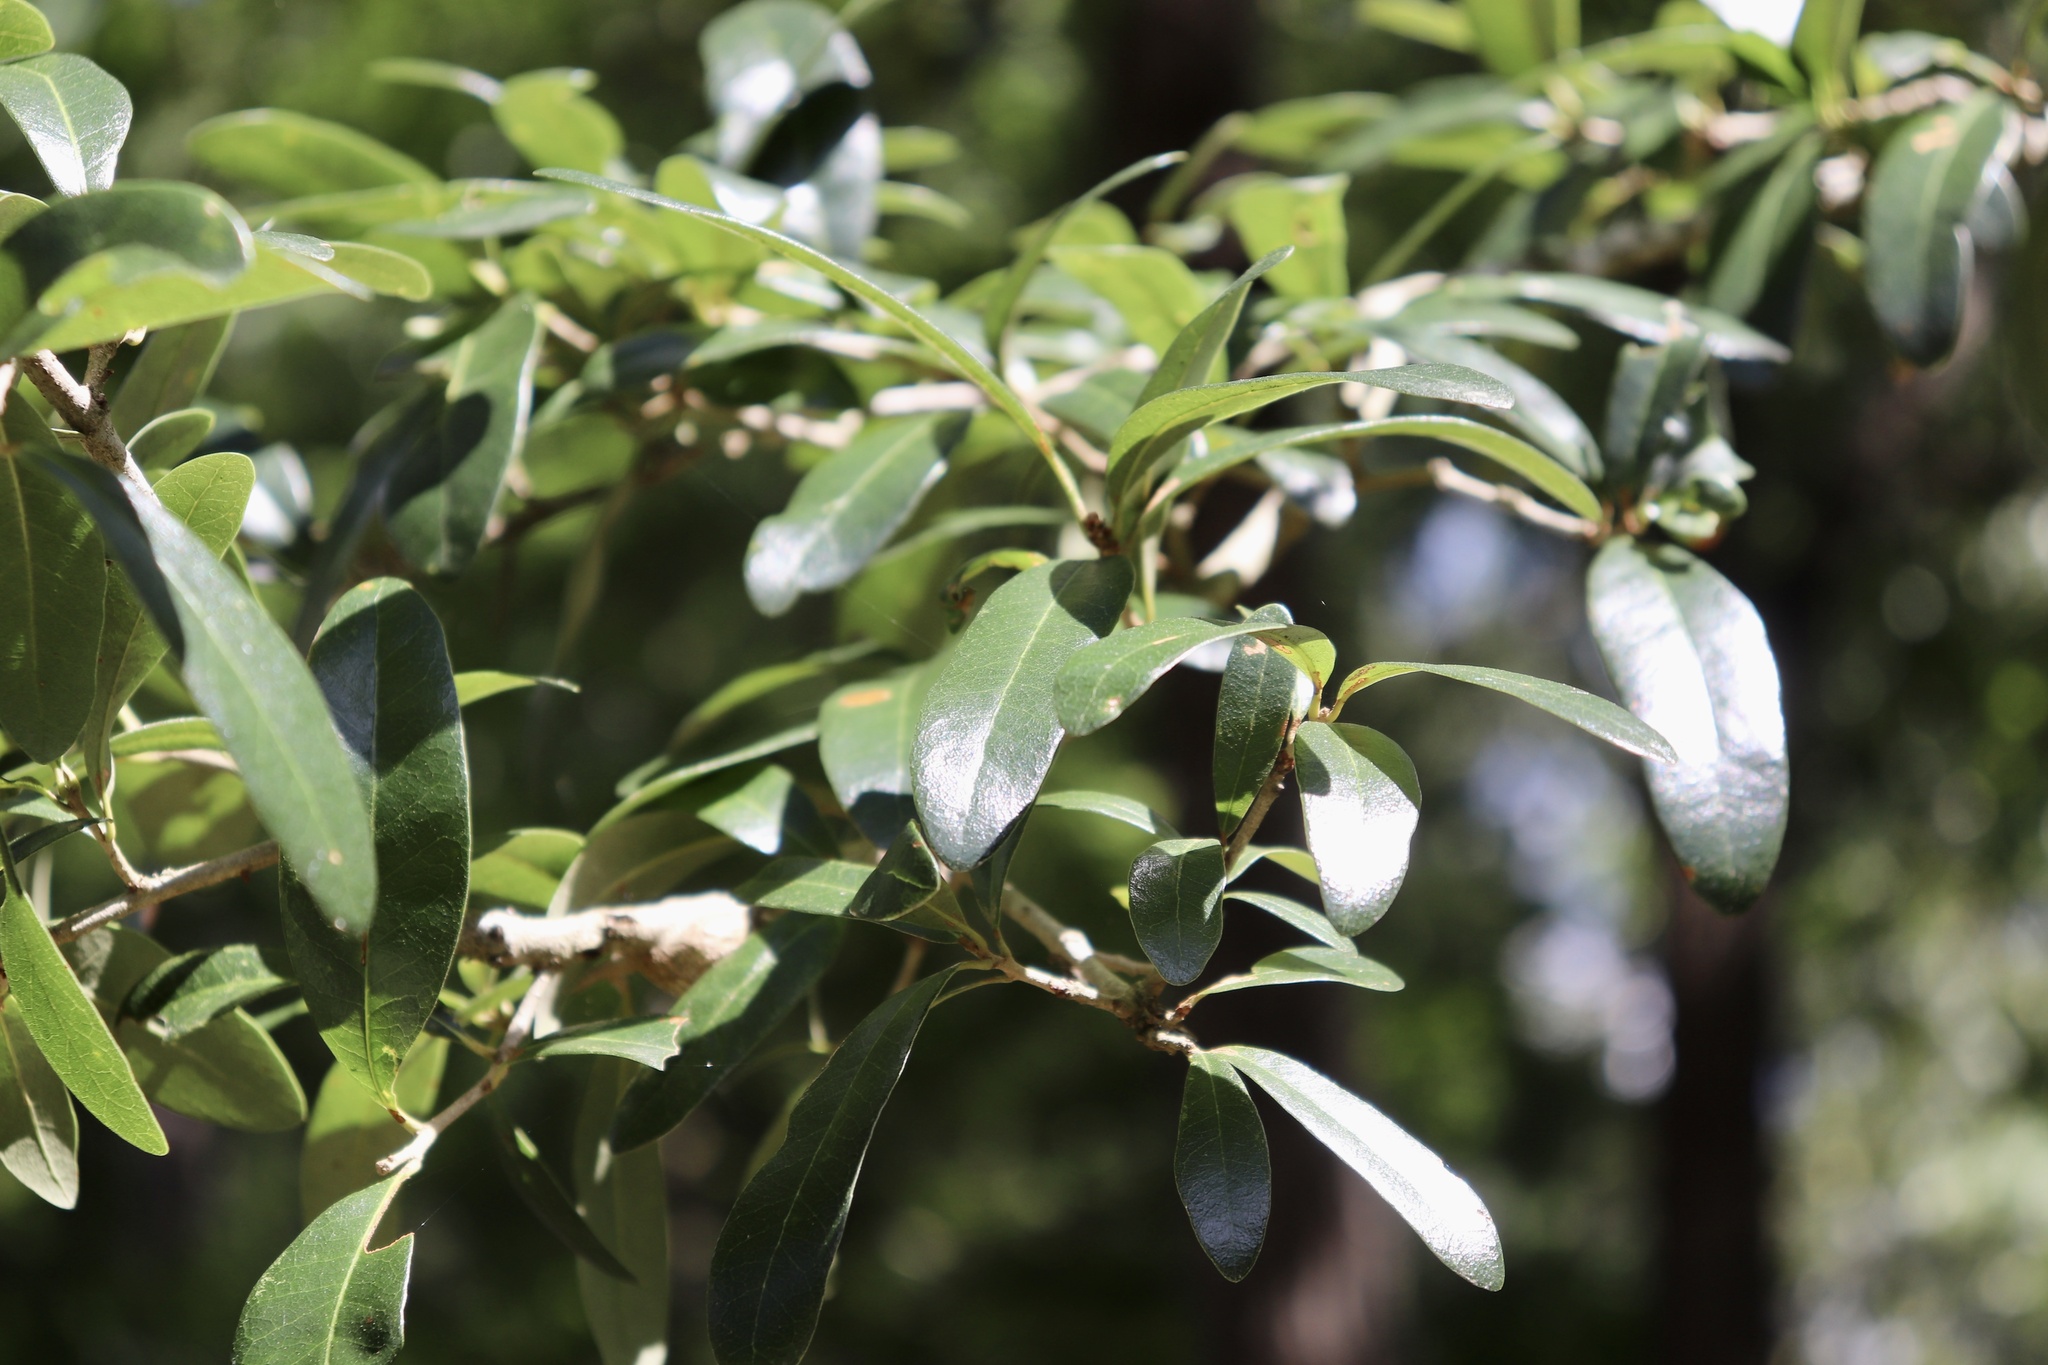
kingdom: Plantae
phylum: Tracheophyta
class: Magnoliopsida
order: Fagales
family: Fagaceae
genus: Quercus
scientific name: Quercus virginiana
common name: Southern live oak
